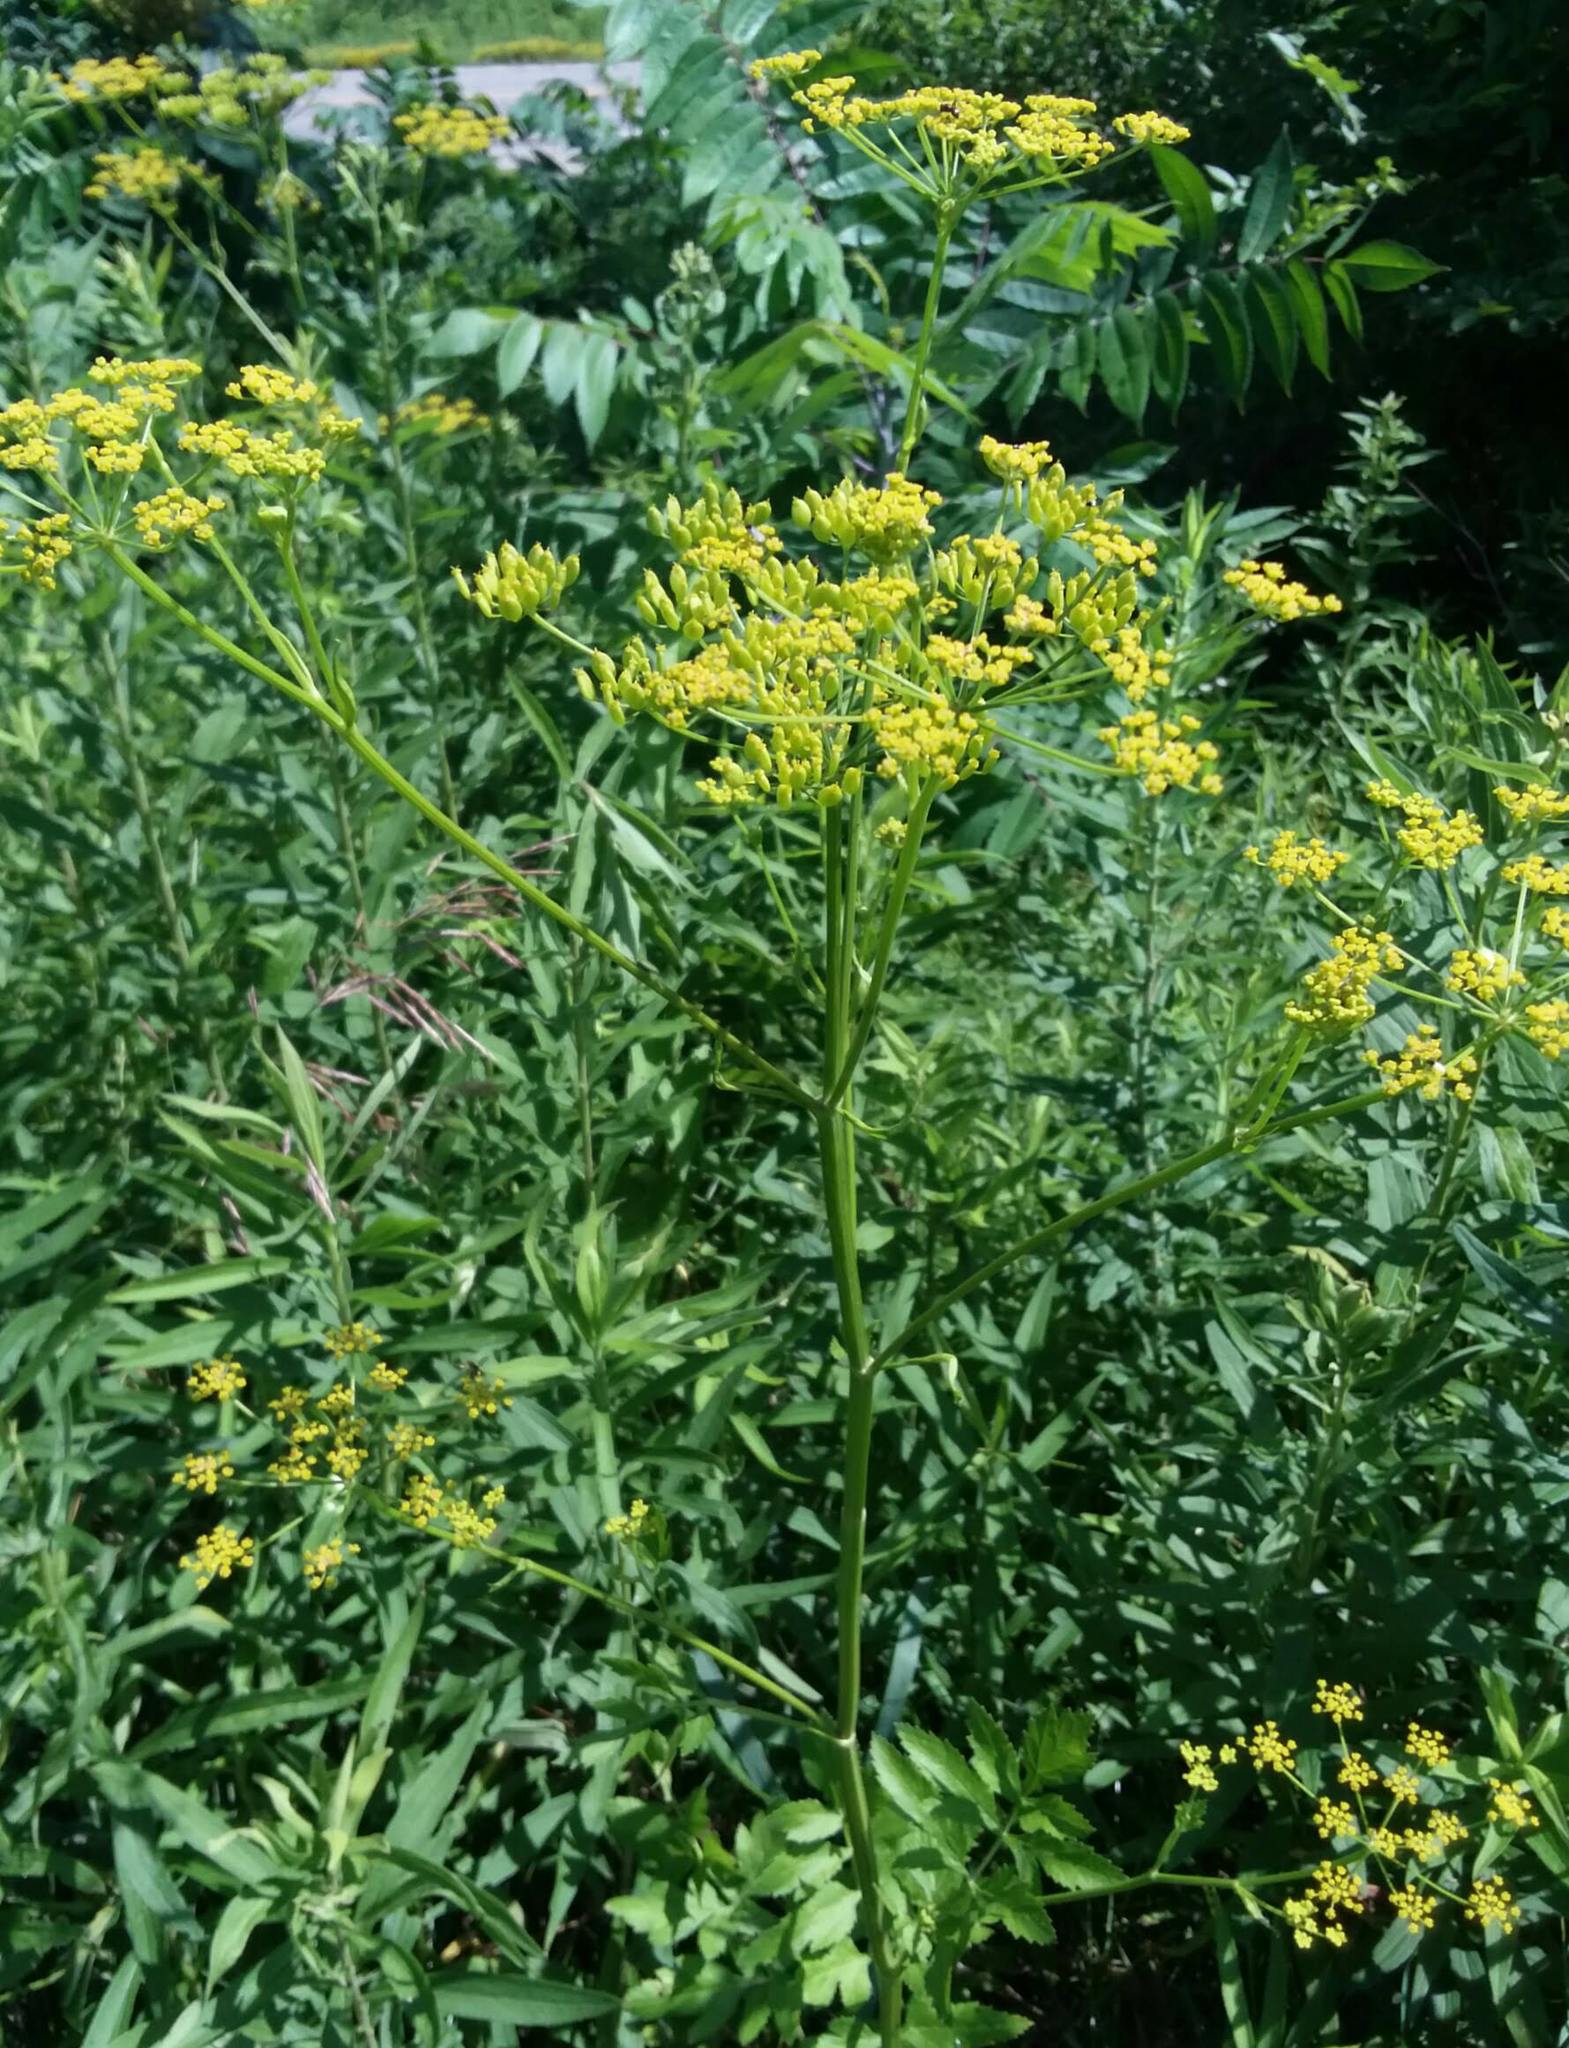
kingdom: Plantae
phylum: Tracheophyta
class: Magnoliopsida
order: Apiales
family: Apiaceae
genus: Pastinaca
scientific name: Pastinaca sativa
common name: Wild parsnip
